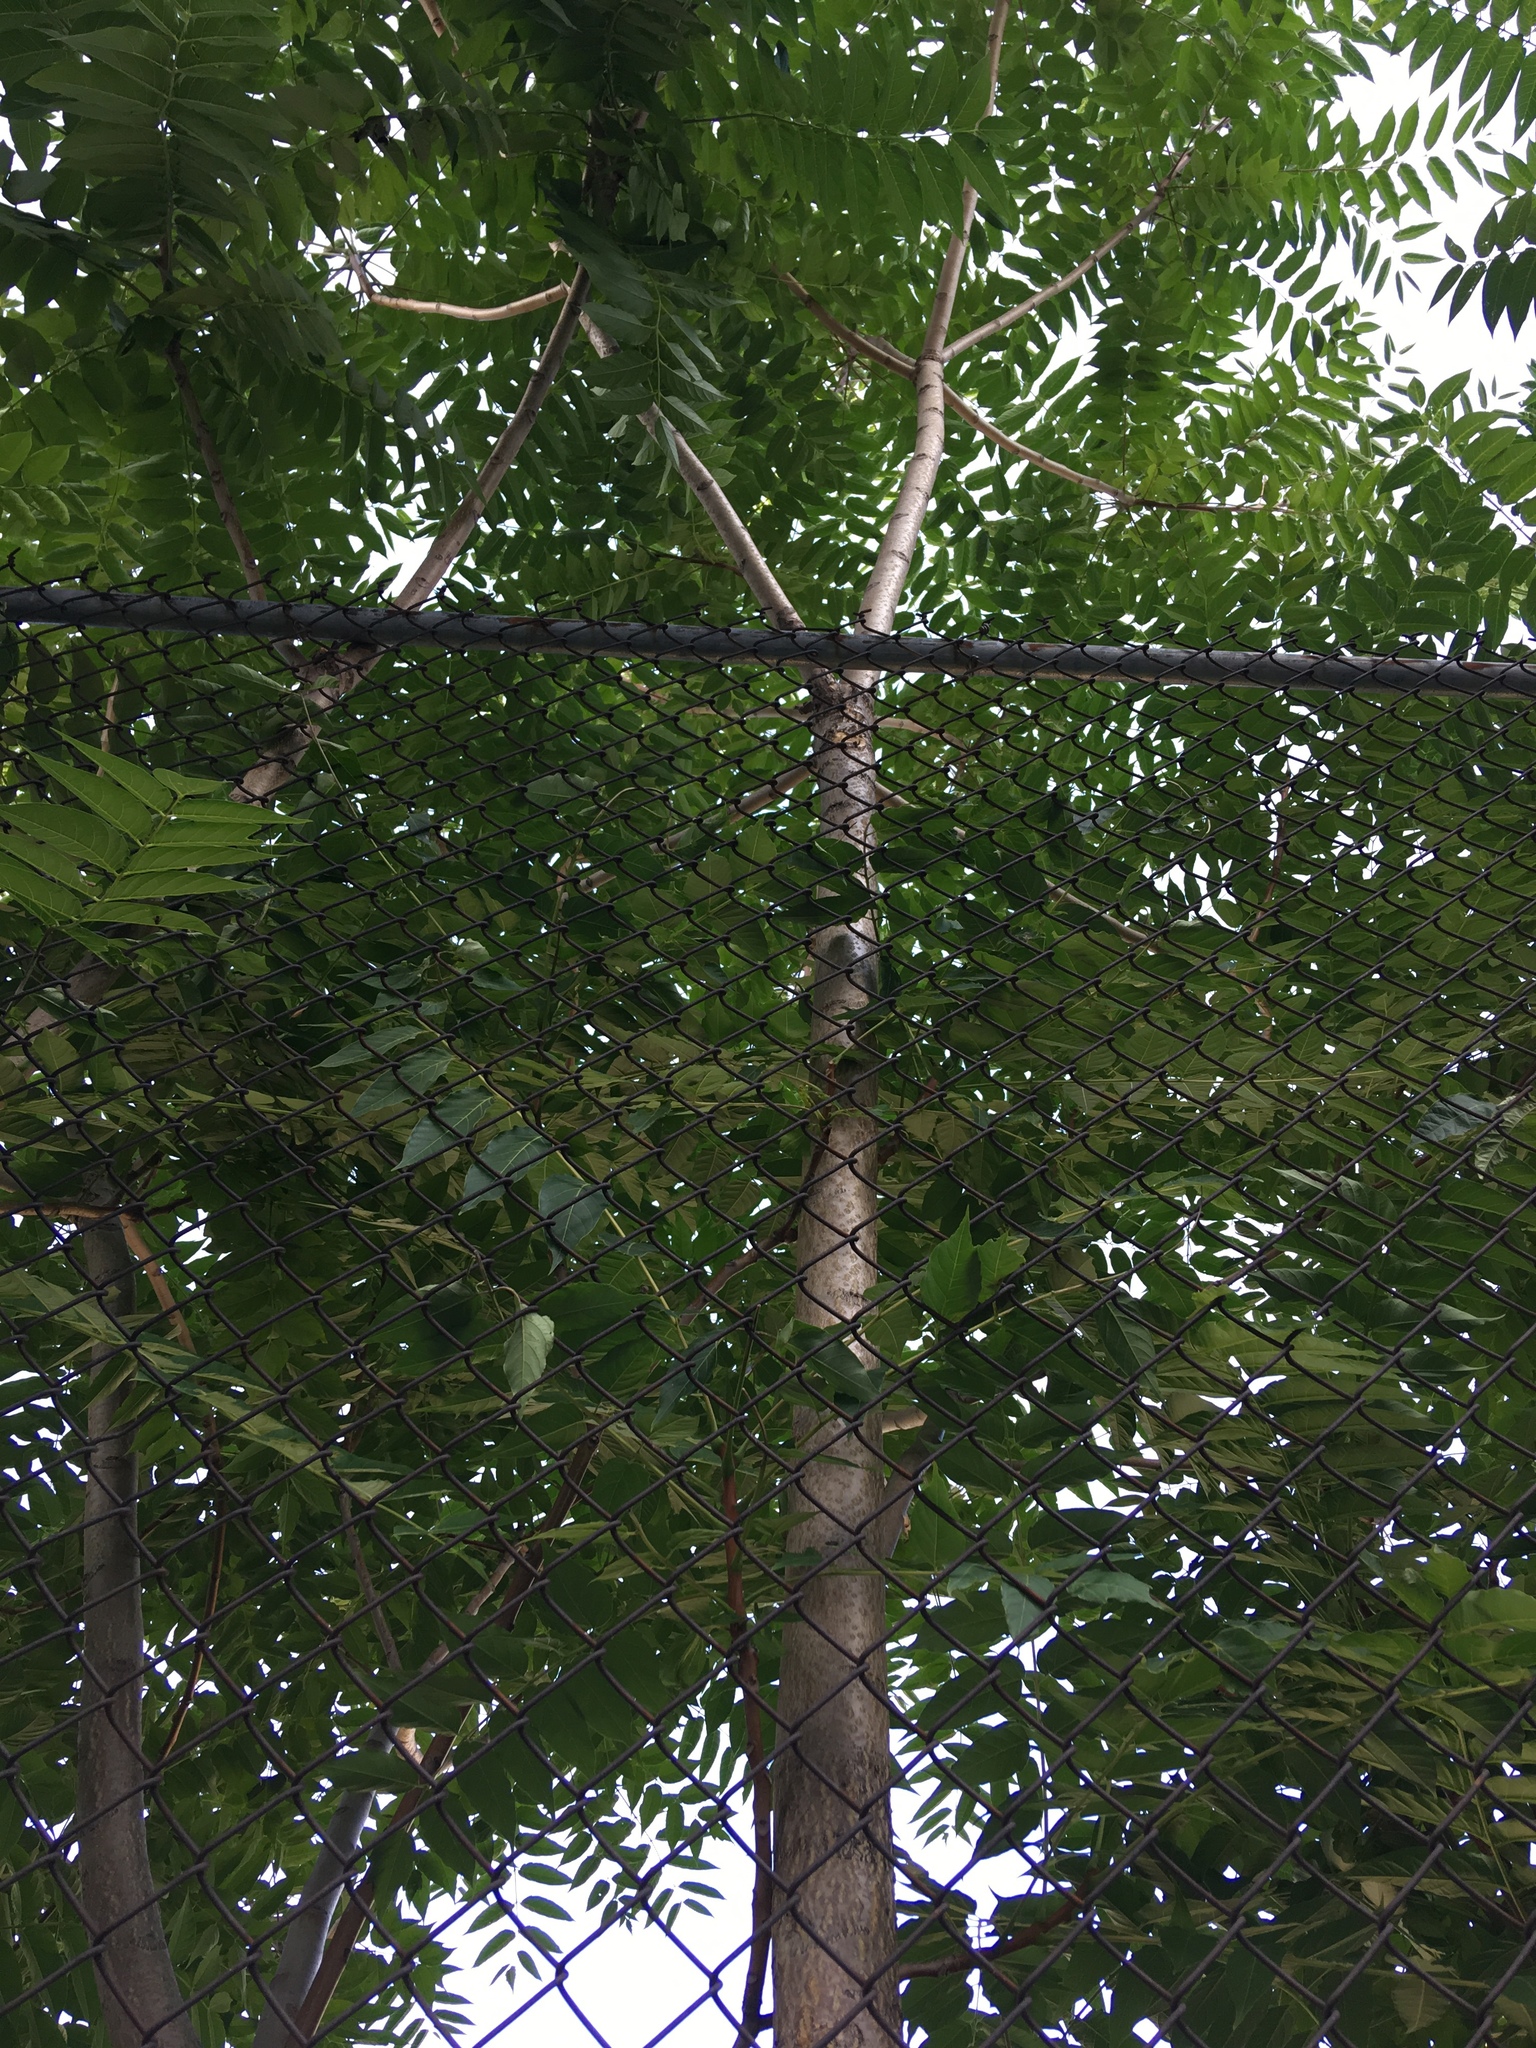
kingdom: Plantae
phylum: Tracheophyta
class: Magnoliopsida
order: Sapindales
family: Simaroubaceae
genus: Ailanthus
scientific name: Ailanthus altissima
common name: Tree-of-heaven
